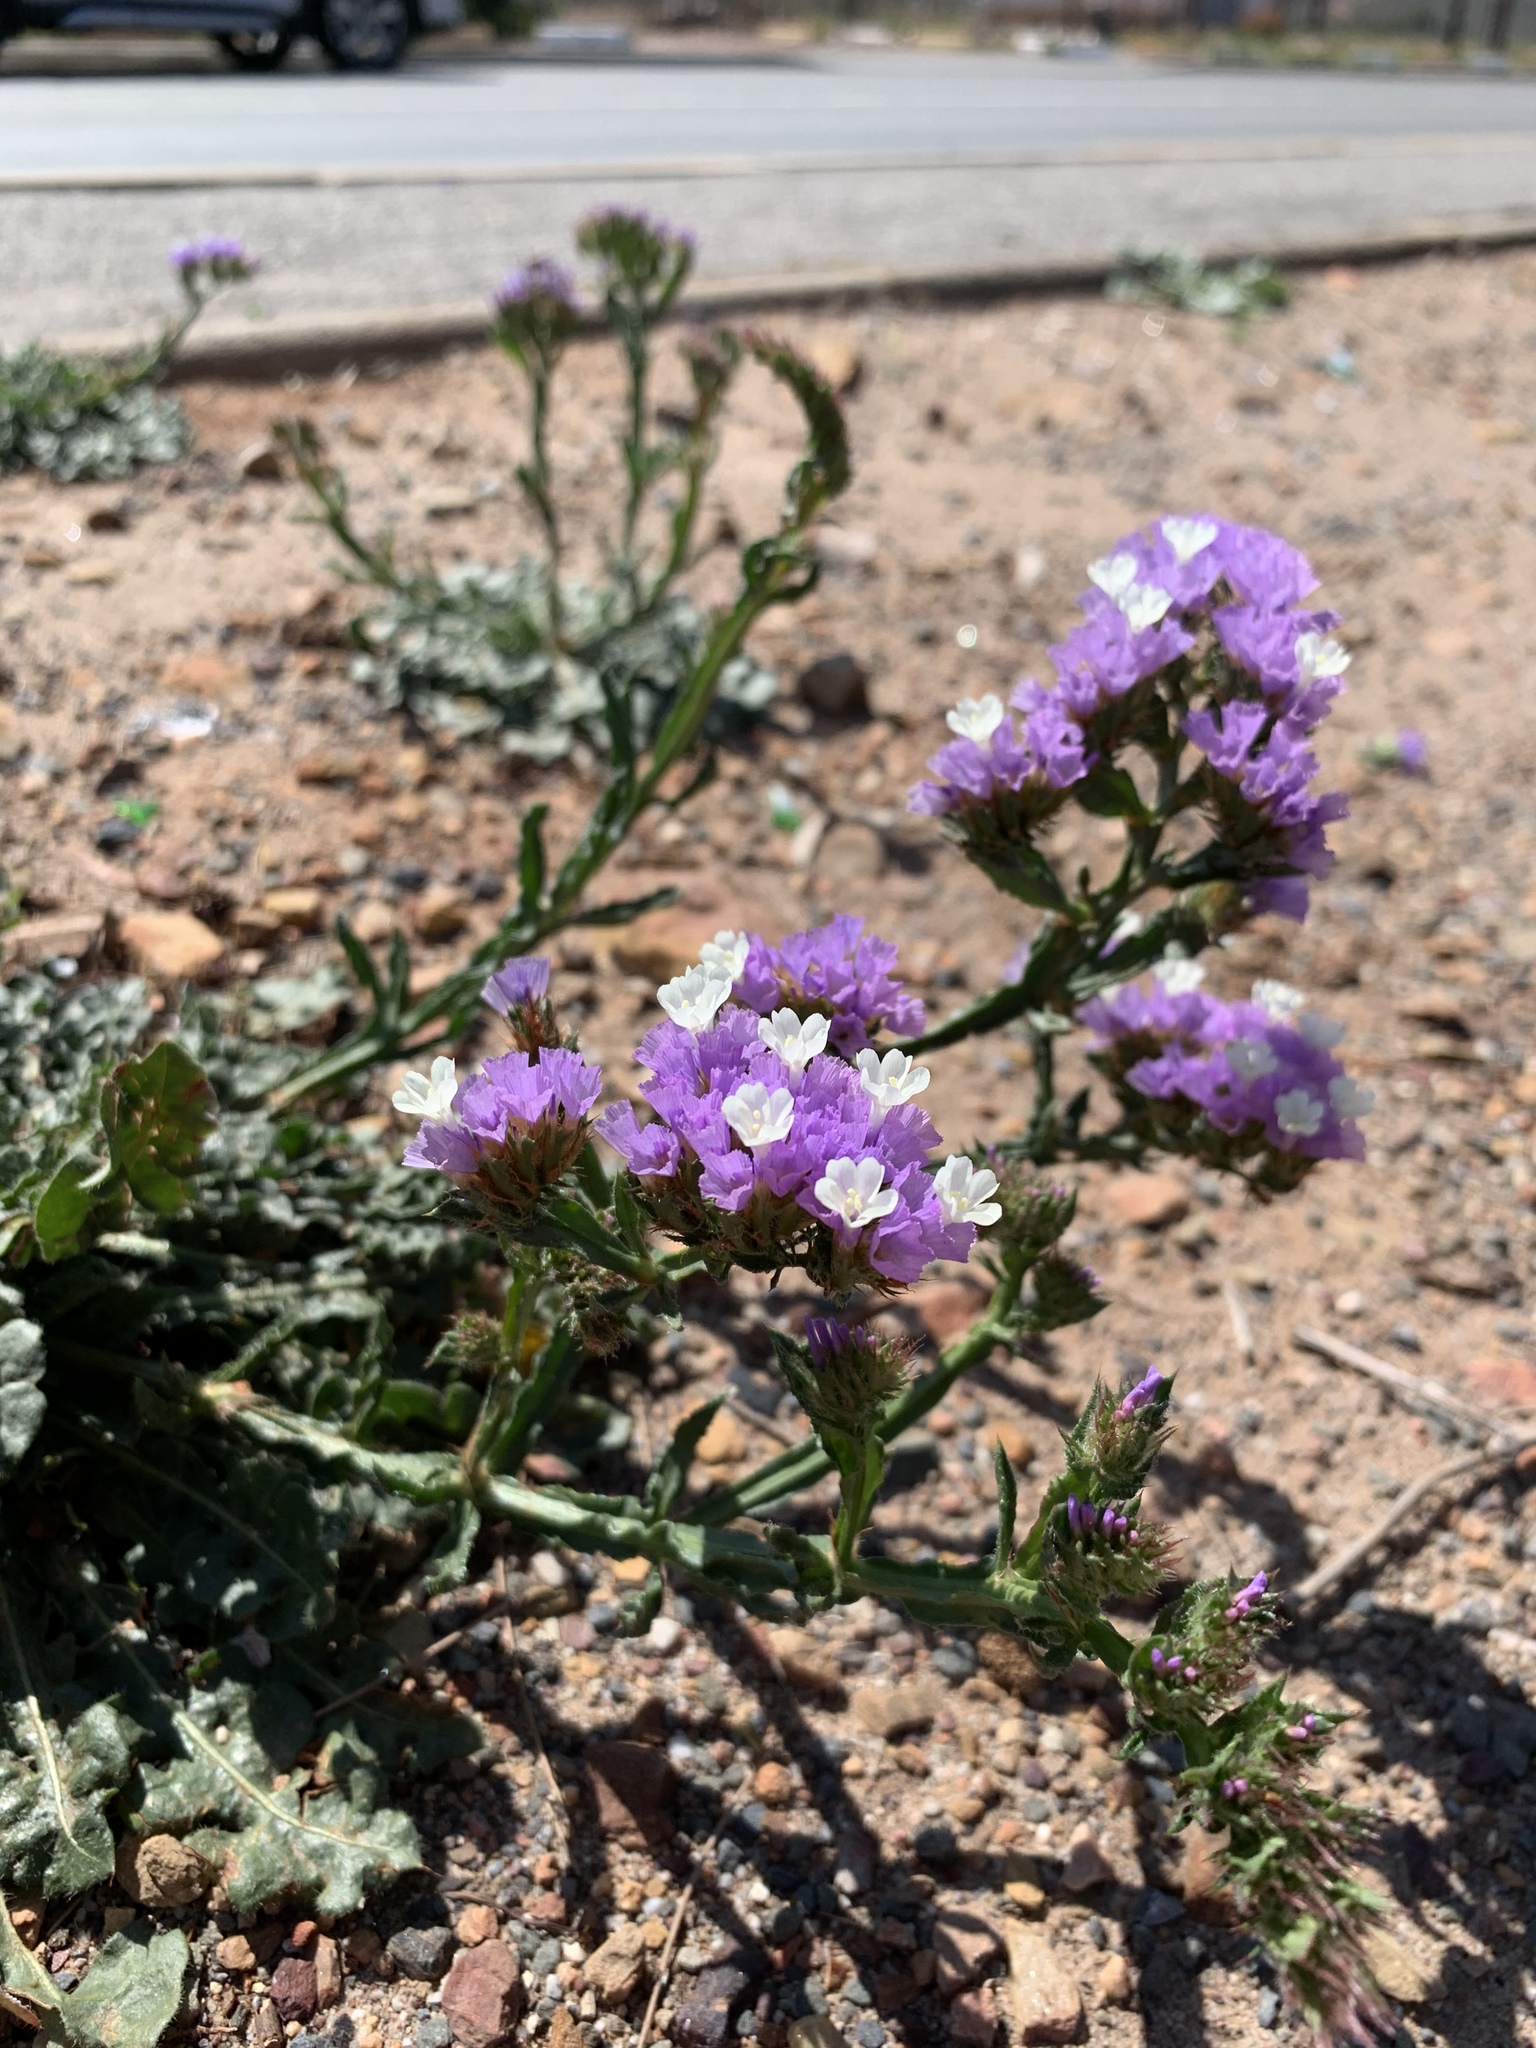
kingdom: Plantae
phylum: Tracheophyta
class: Magnoliopsida
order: Caryophyllales
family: Plumbaginaceae
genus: Limonium
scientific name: Limonium sinuatum
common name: Statice
